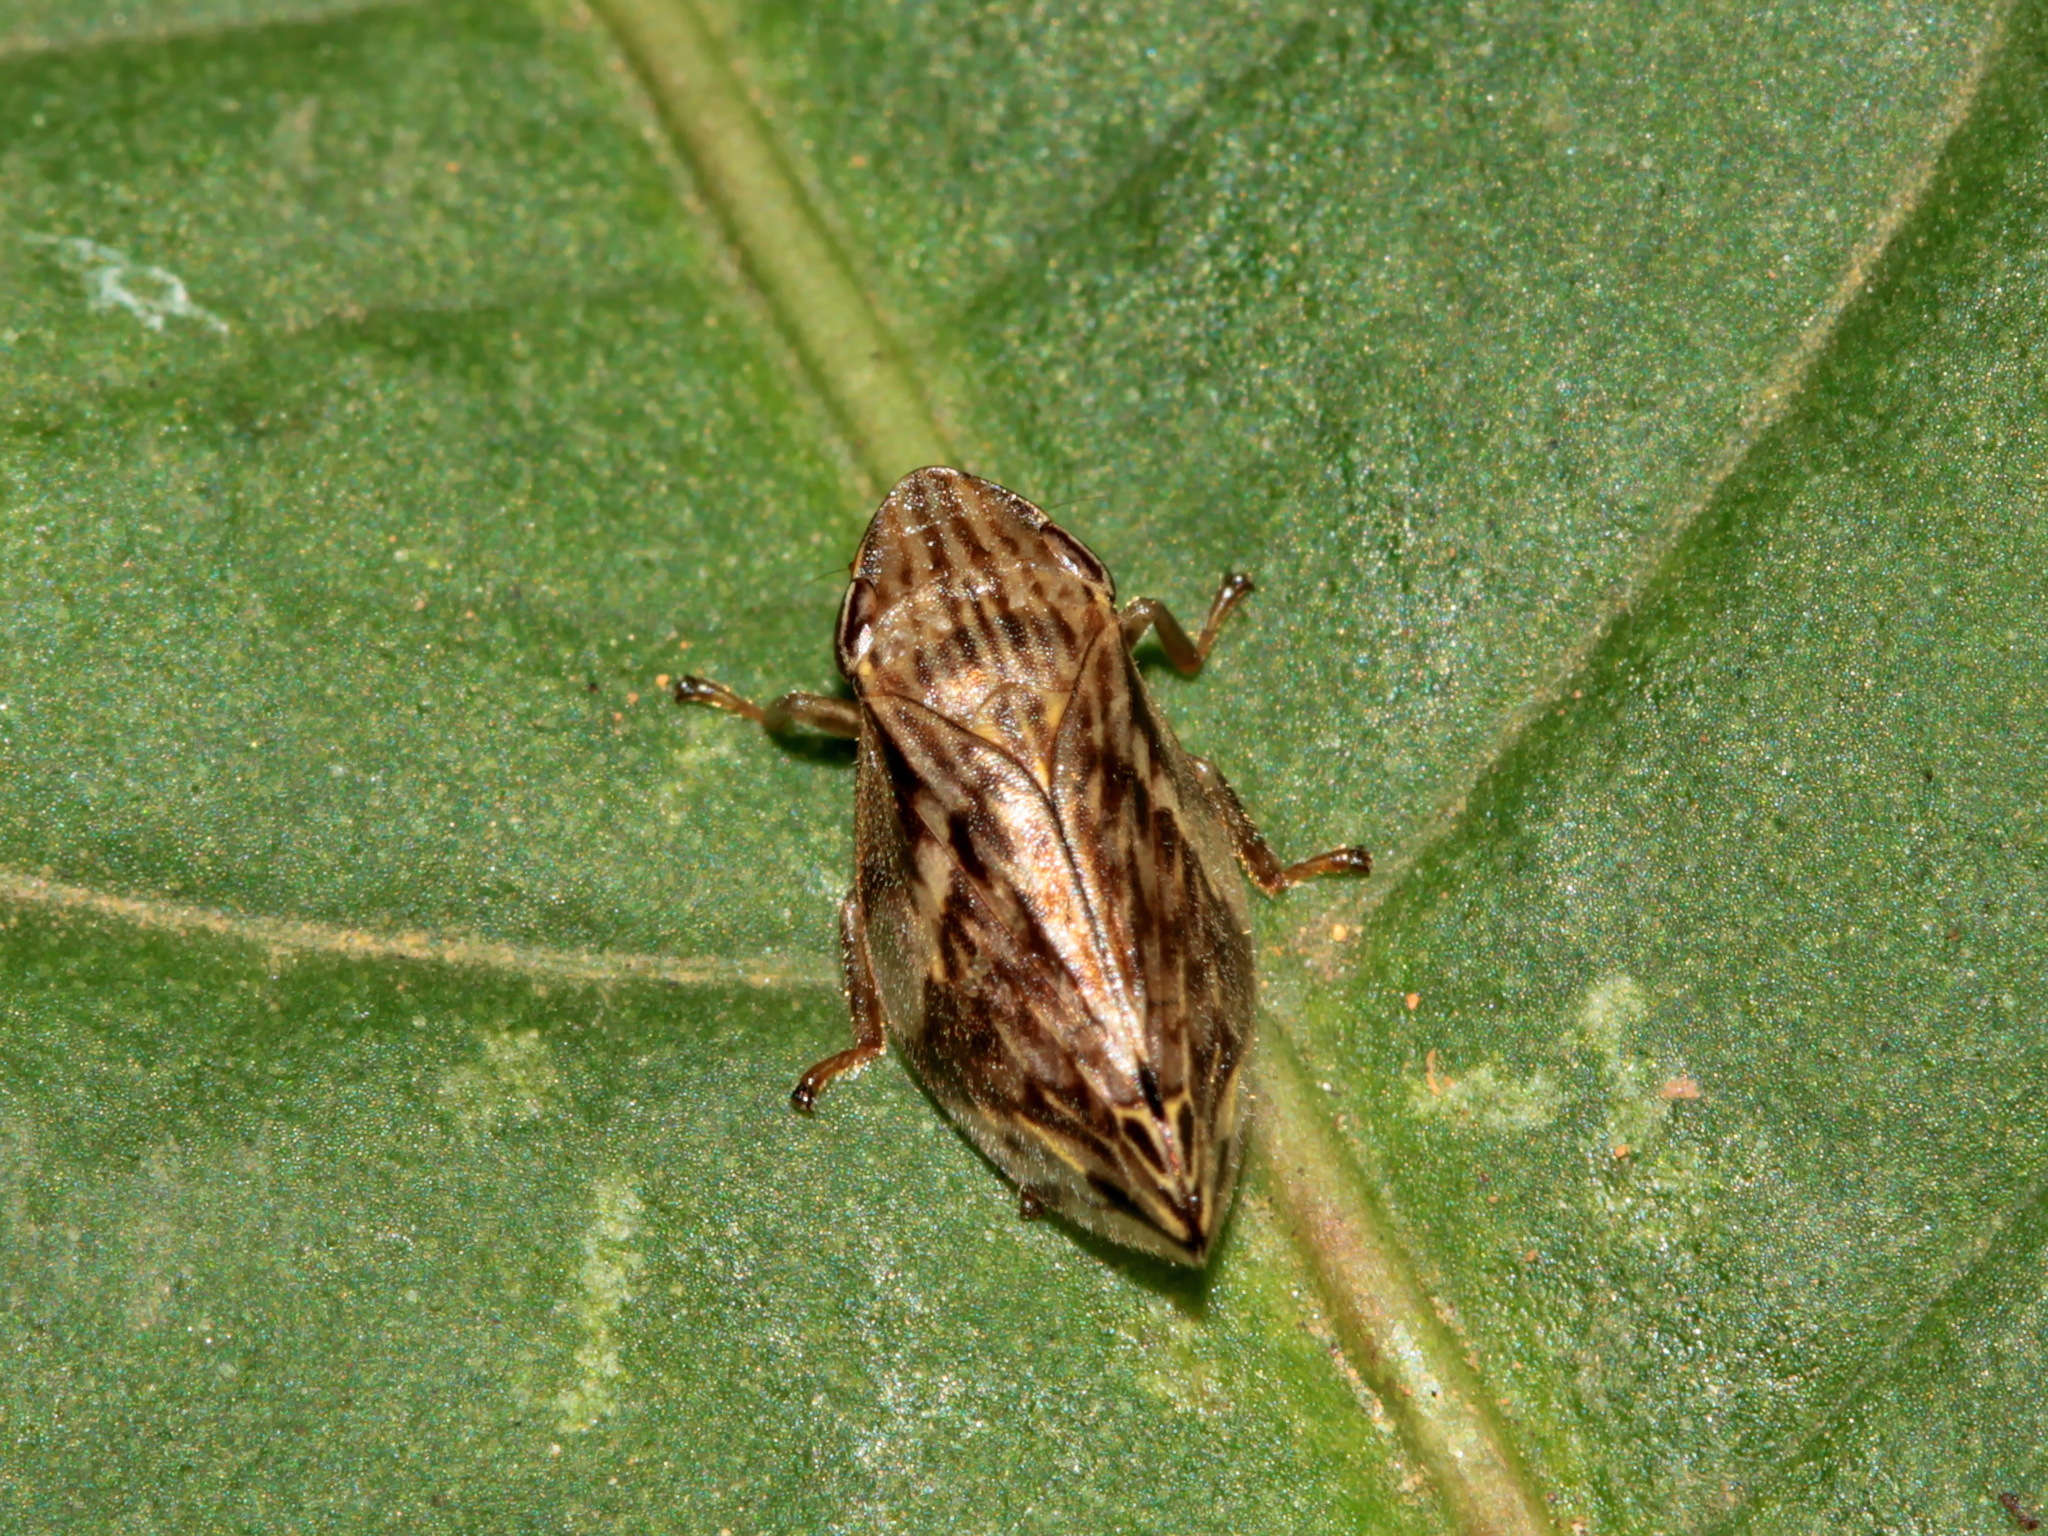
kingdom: Animalia
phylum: Arthropoda
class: Insecta
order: Hemiptera
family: Aphrophoridae
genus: Clovia
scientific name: Clovia conifera
